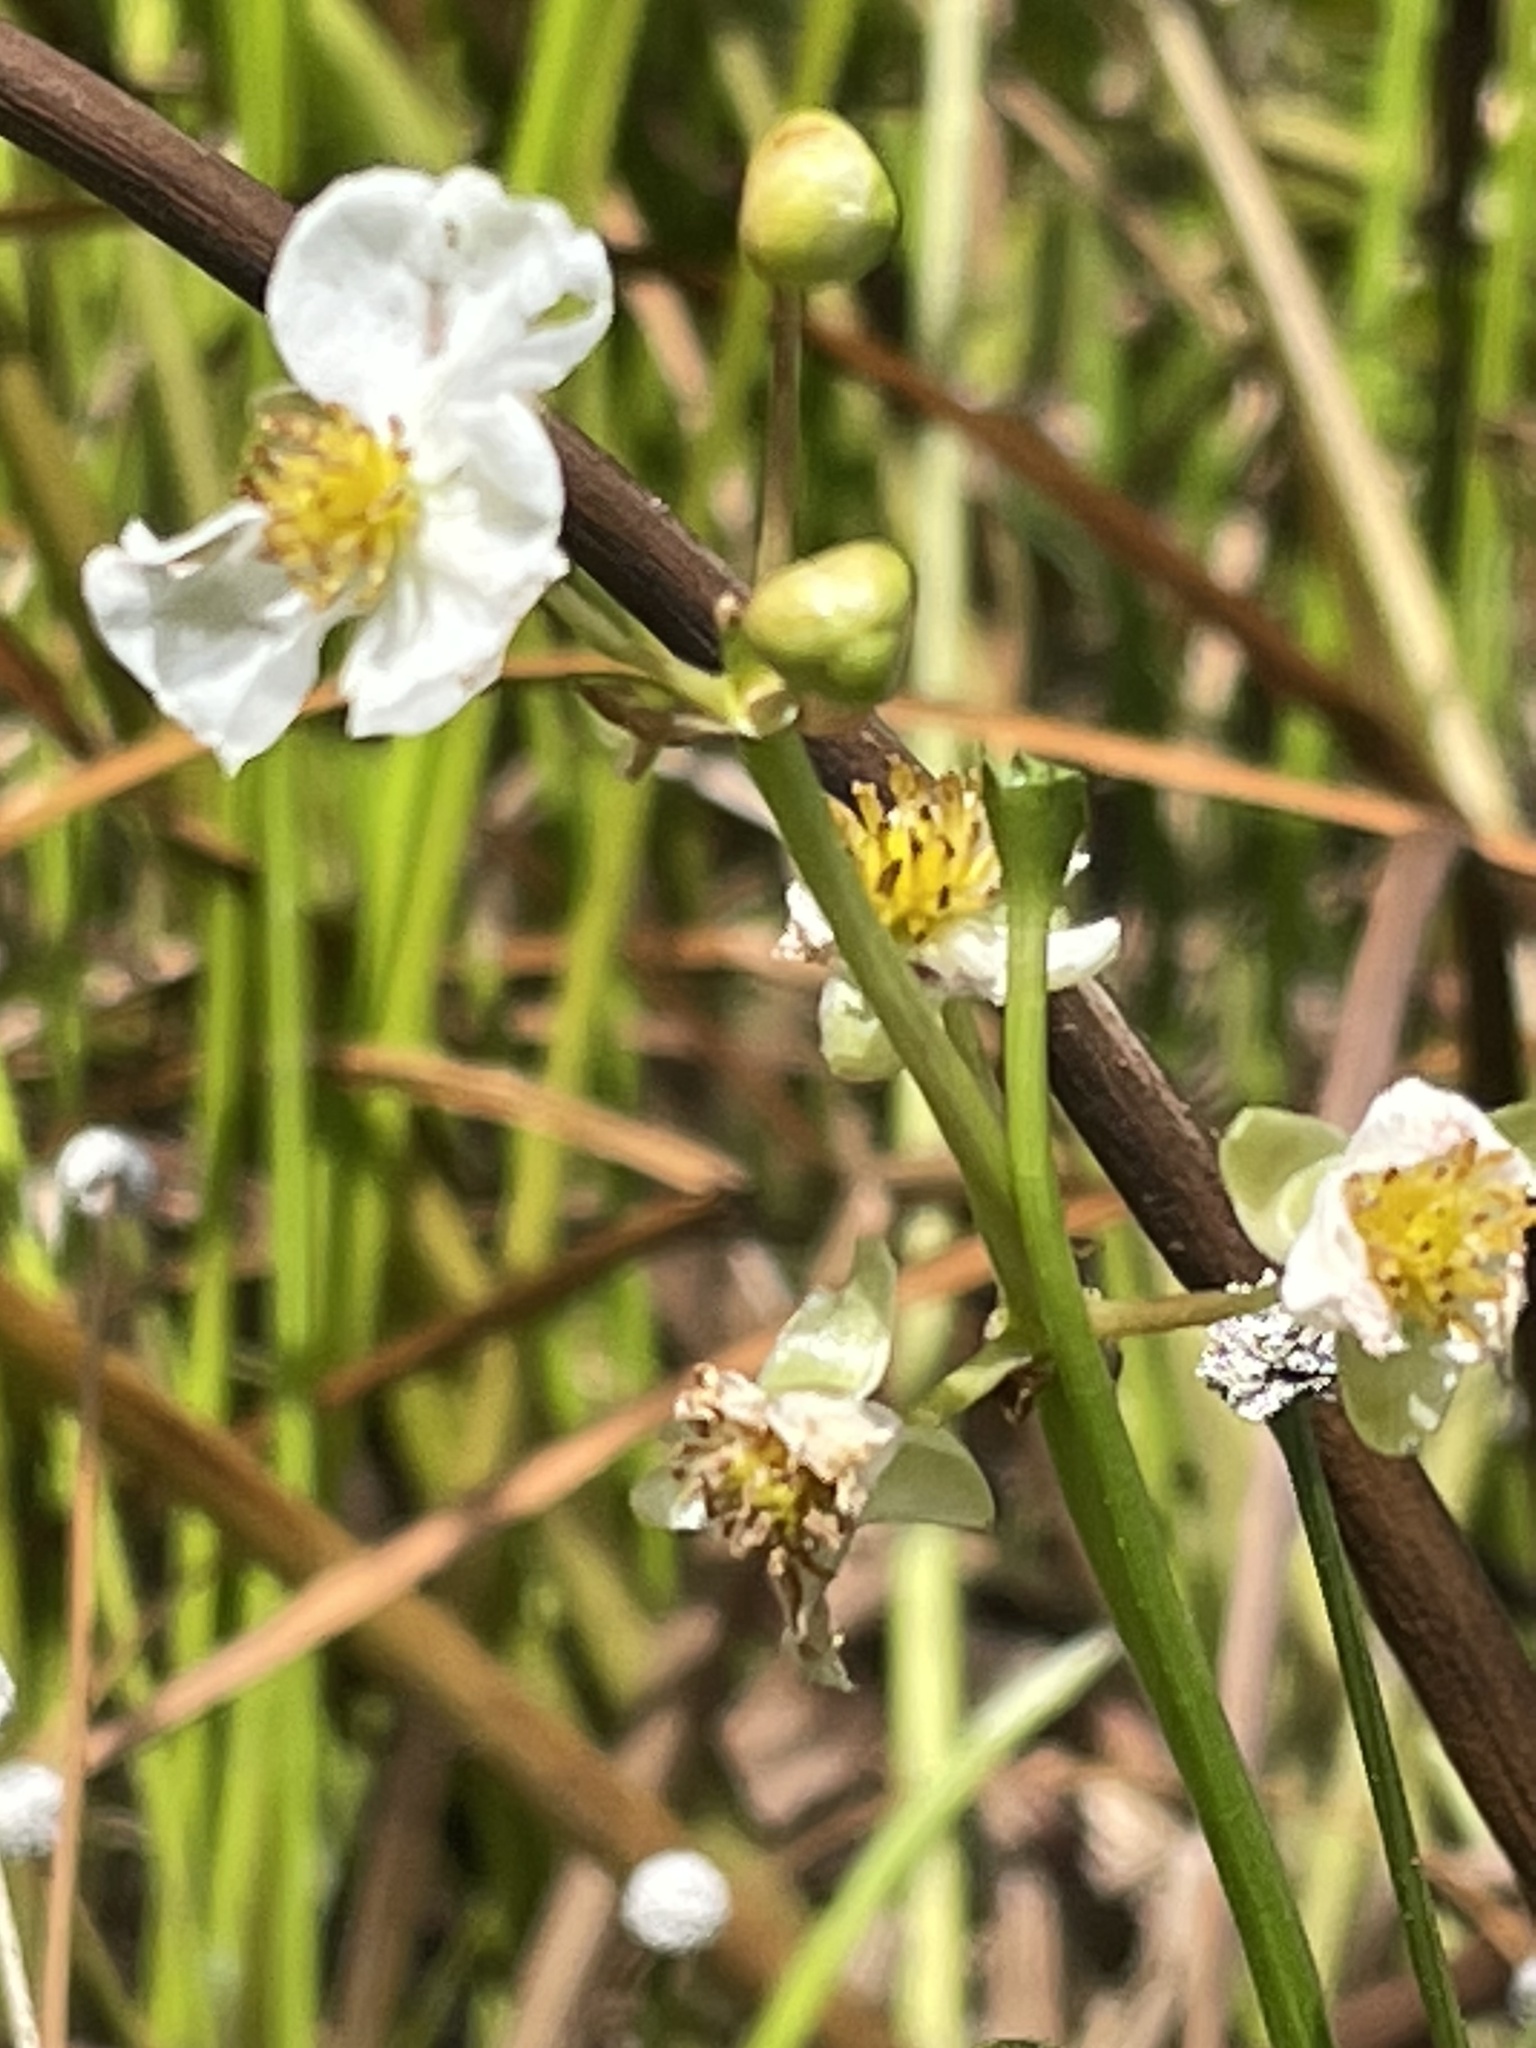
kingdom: Plantae
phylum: Tracheophyta
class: Liliopsida
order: Alismatales
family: Alismataceae
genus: Sagittaria
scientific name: Sagittaria latifolia
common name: Duck-potato
